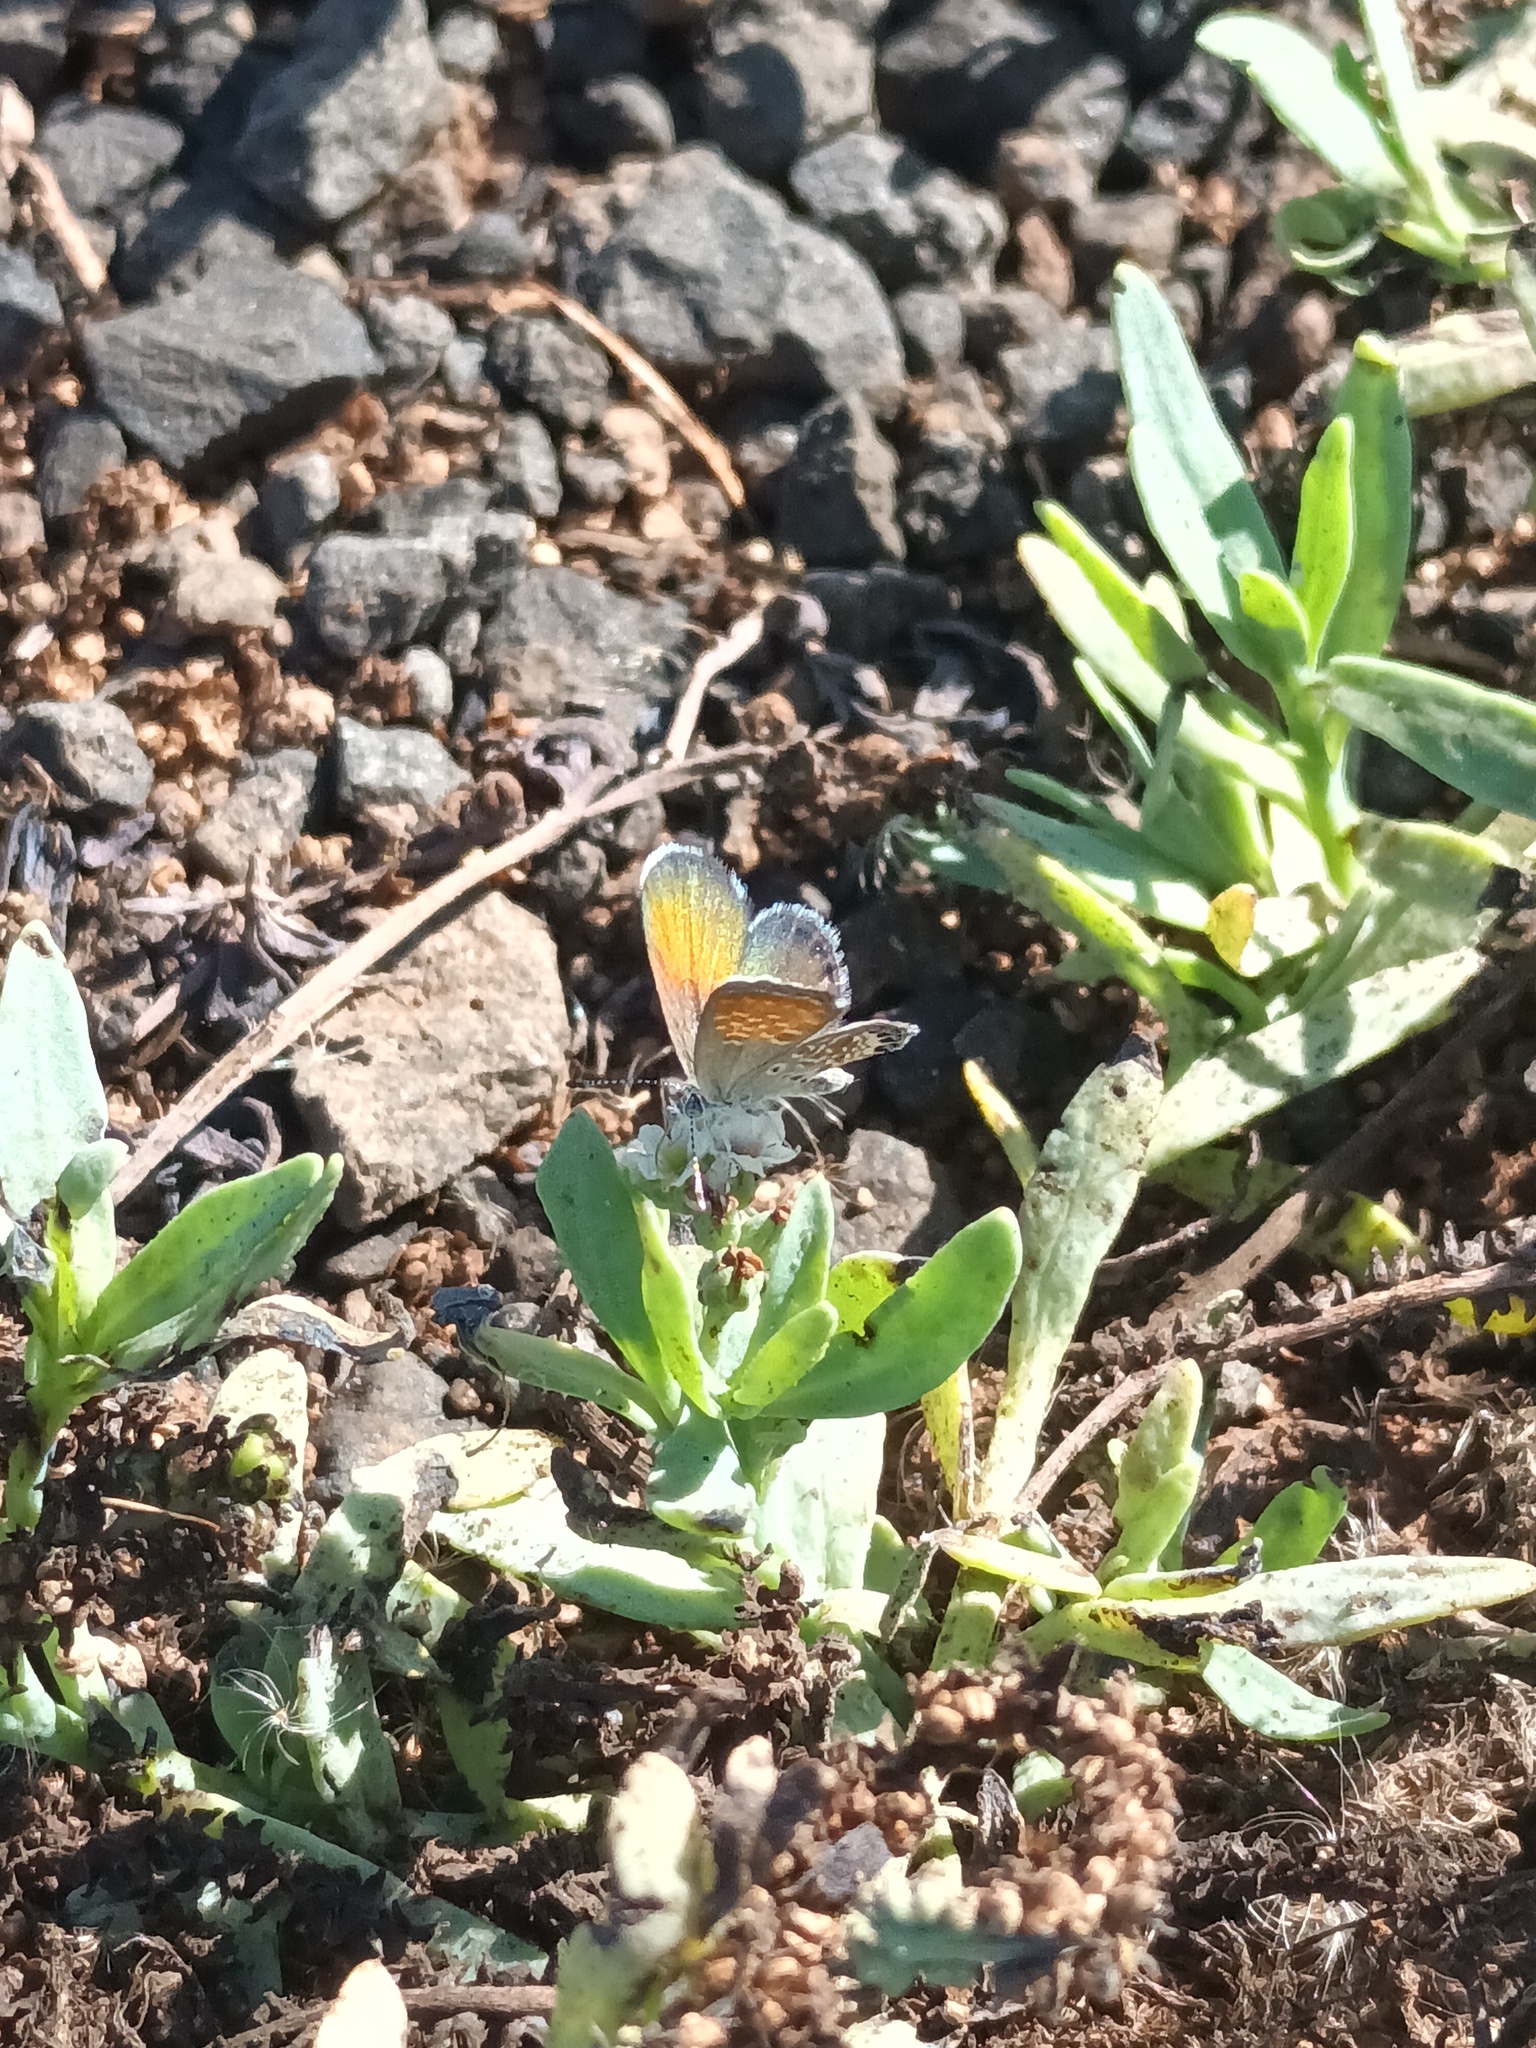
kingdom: Animalia
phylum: Arthropoda
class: Insecta
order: Lepidoptera
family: Lycaenidae
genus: Brephidium
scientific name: Brephidium exilis
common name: Pygmy blue
